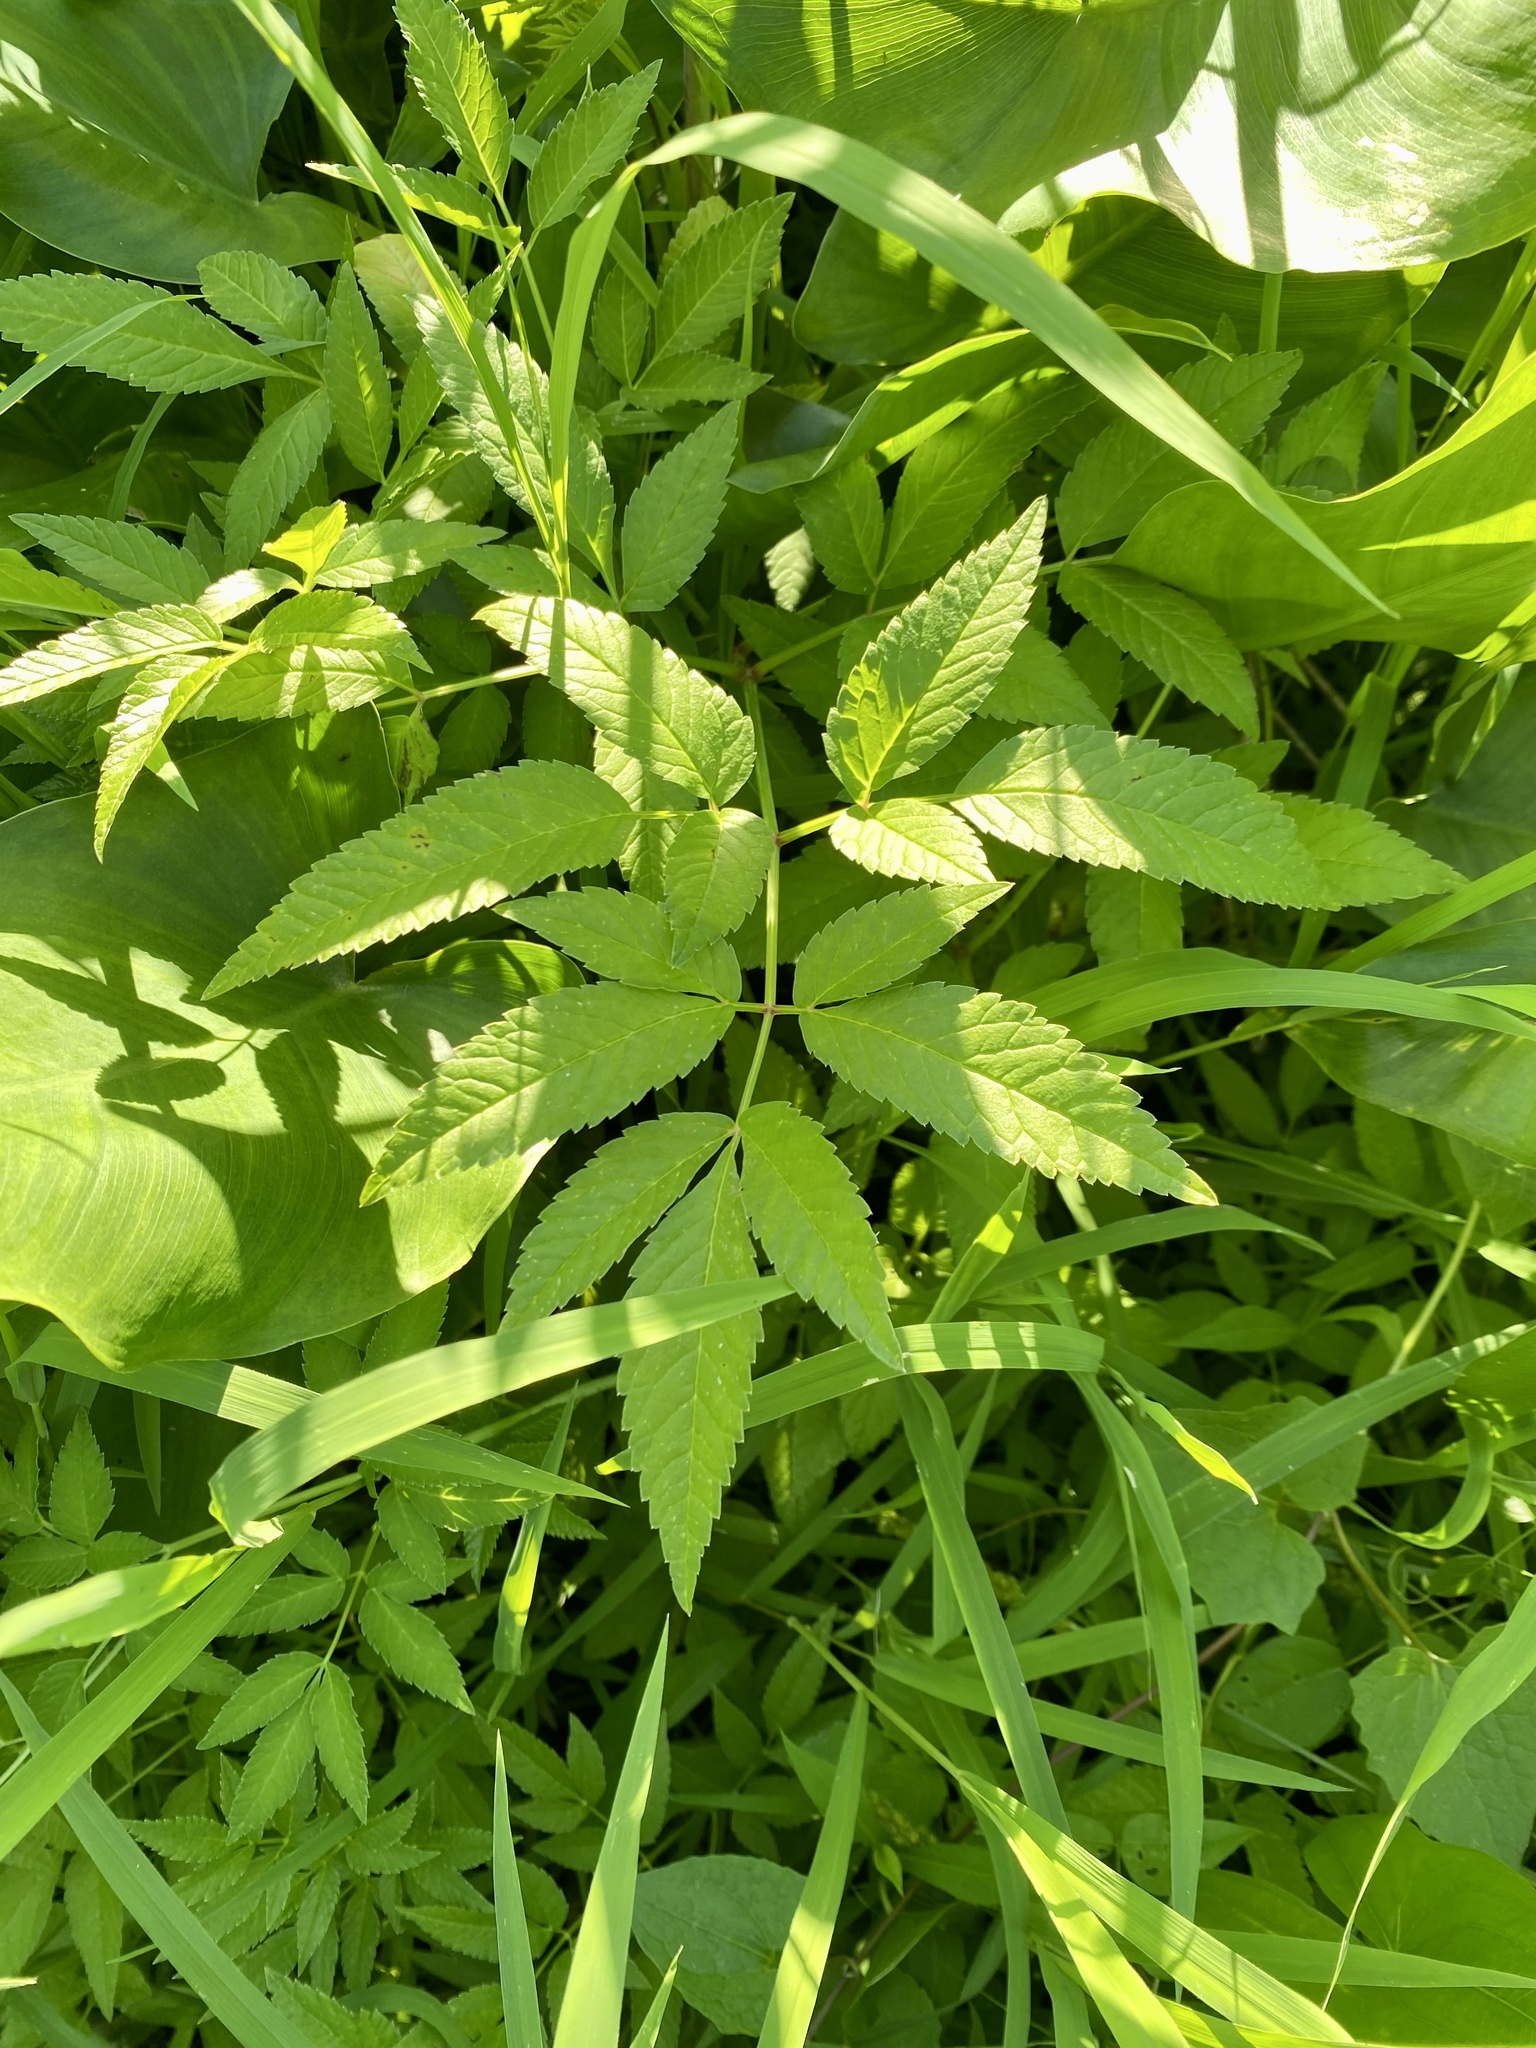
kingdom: Plantae
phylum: Tracheophyta
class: Magnoliopsida
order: Apiales
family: Apiaceae
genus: Cicuta
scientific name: Cicuta maculata
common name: Spotted cowbane
